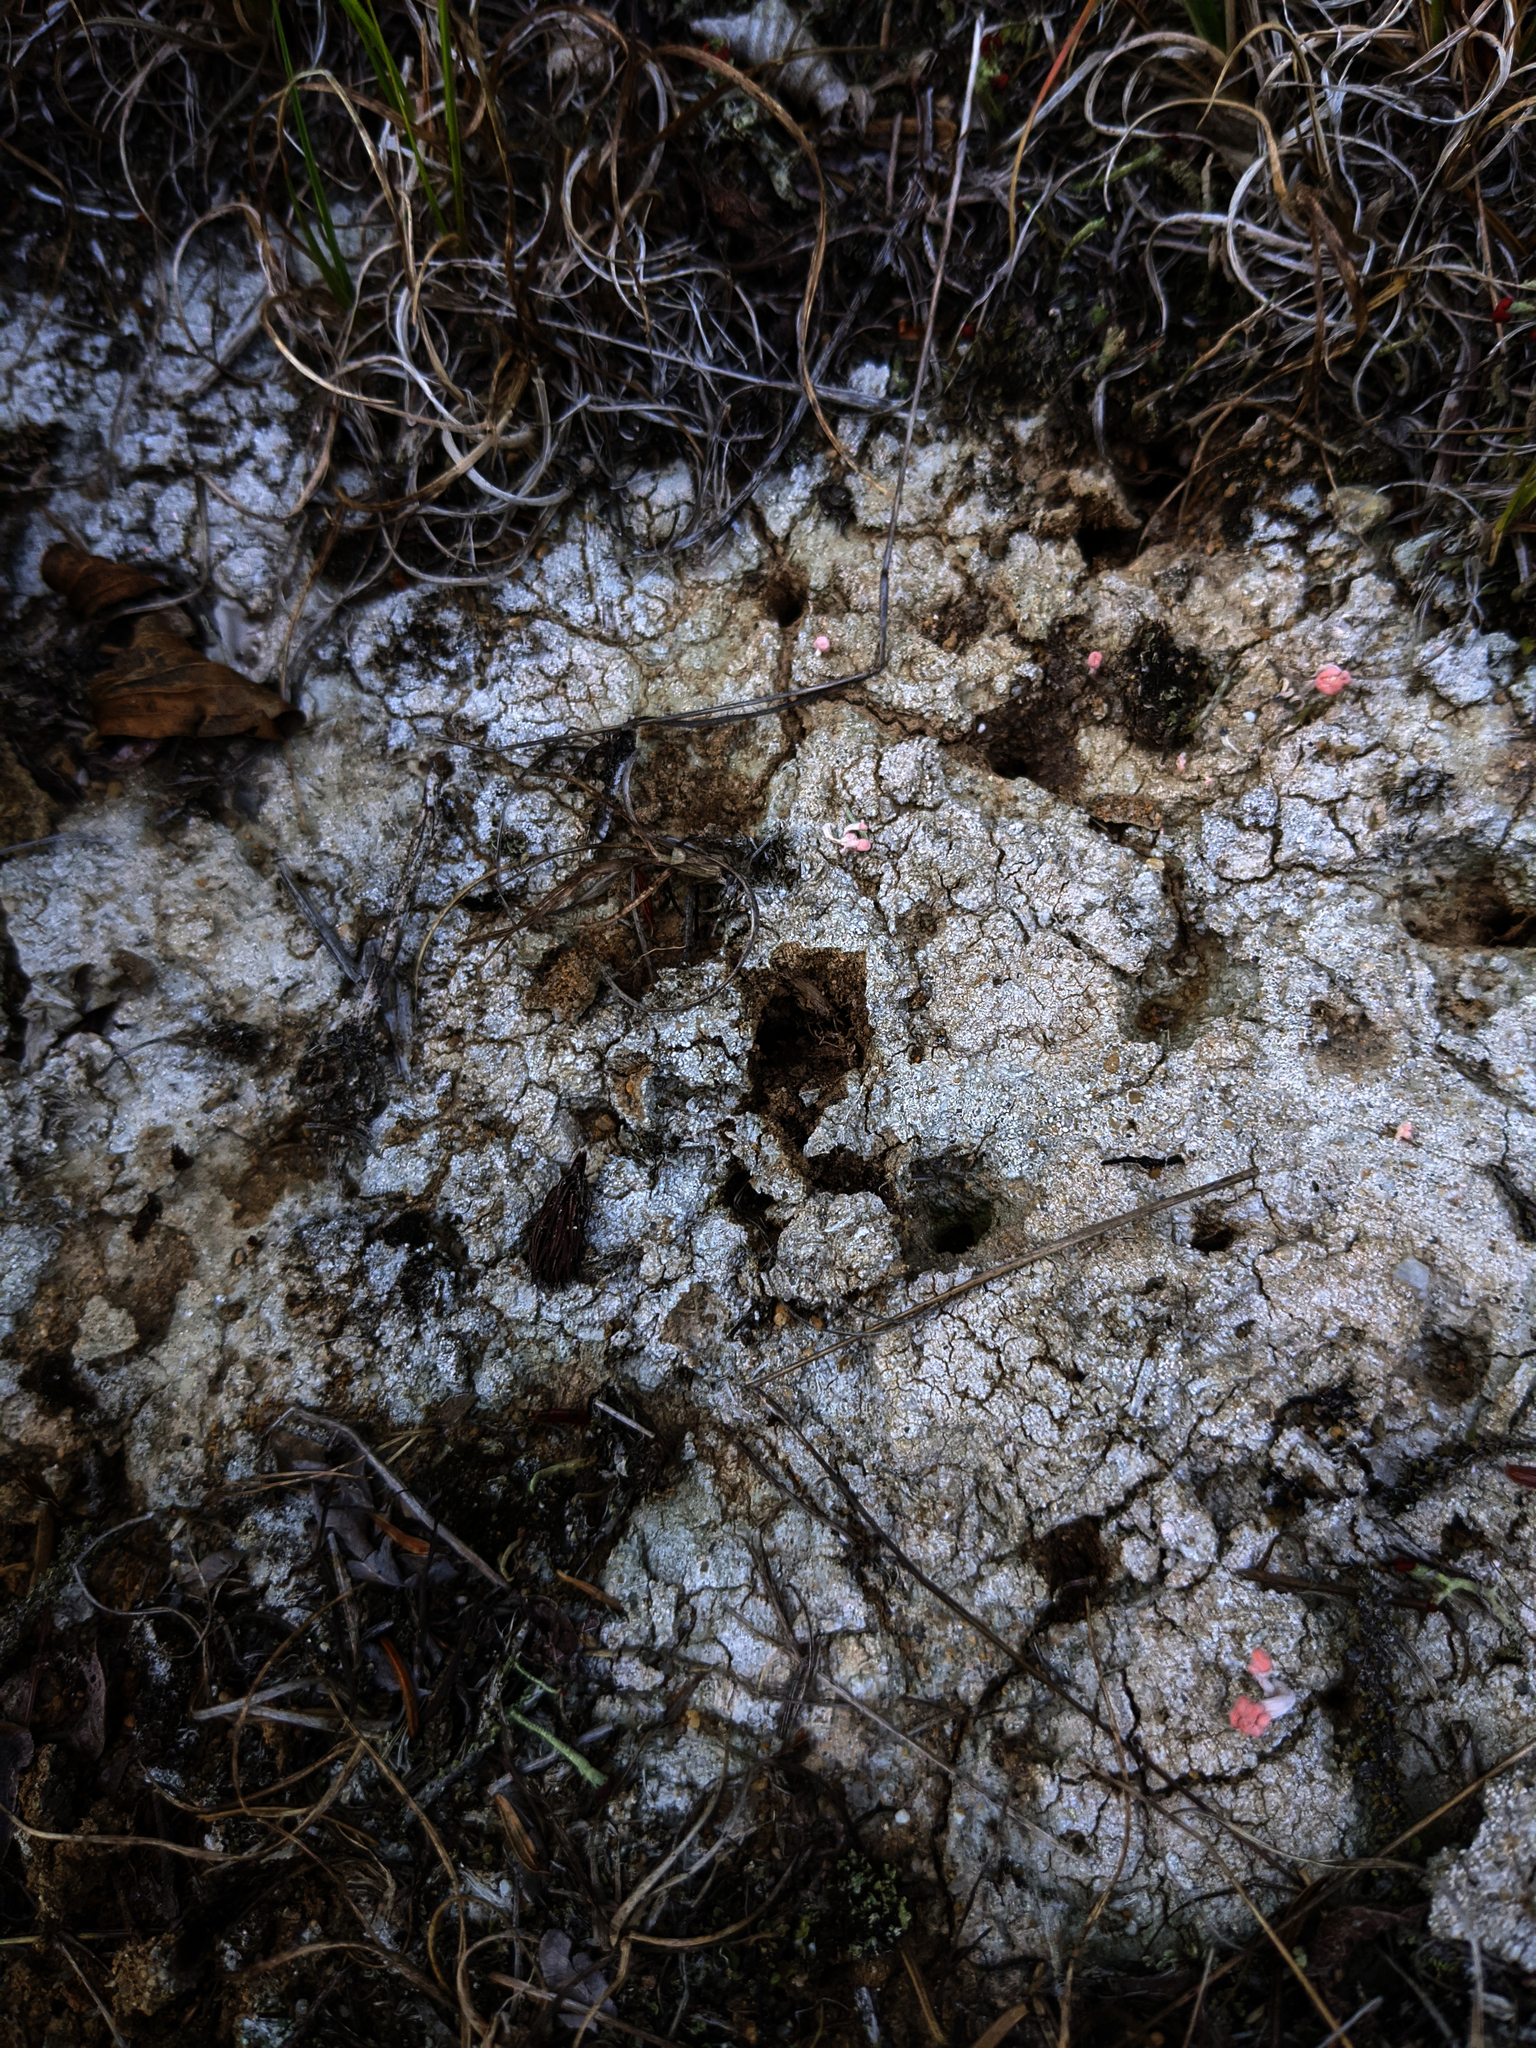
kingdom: Fungi
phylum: Ascomycota
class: Lecanoromycetes
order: Pertusariales
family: Icmadophilaceae
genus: Dibaeis
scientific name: Dibaeis baeomyces
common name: Pink earth lichen
